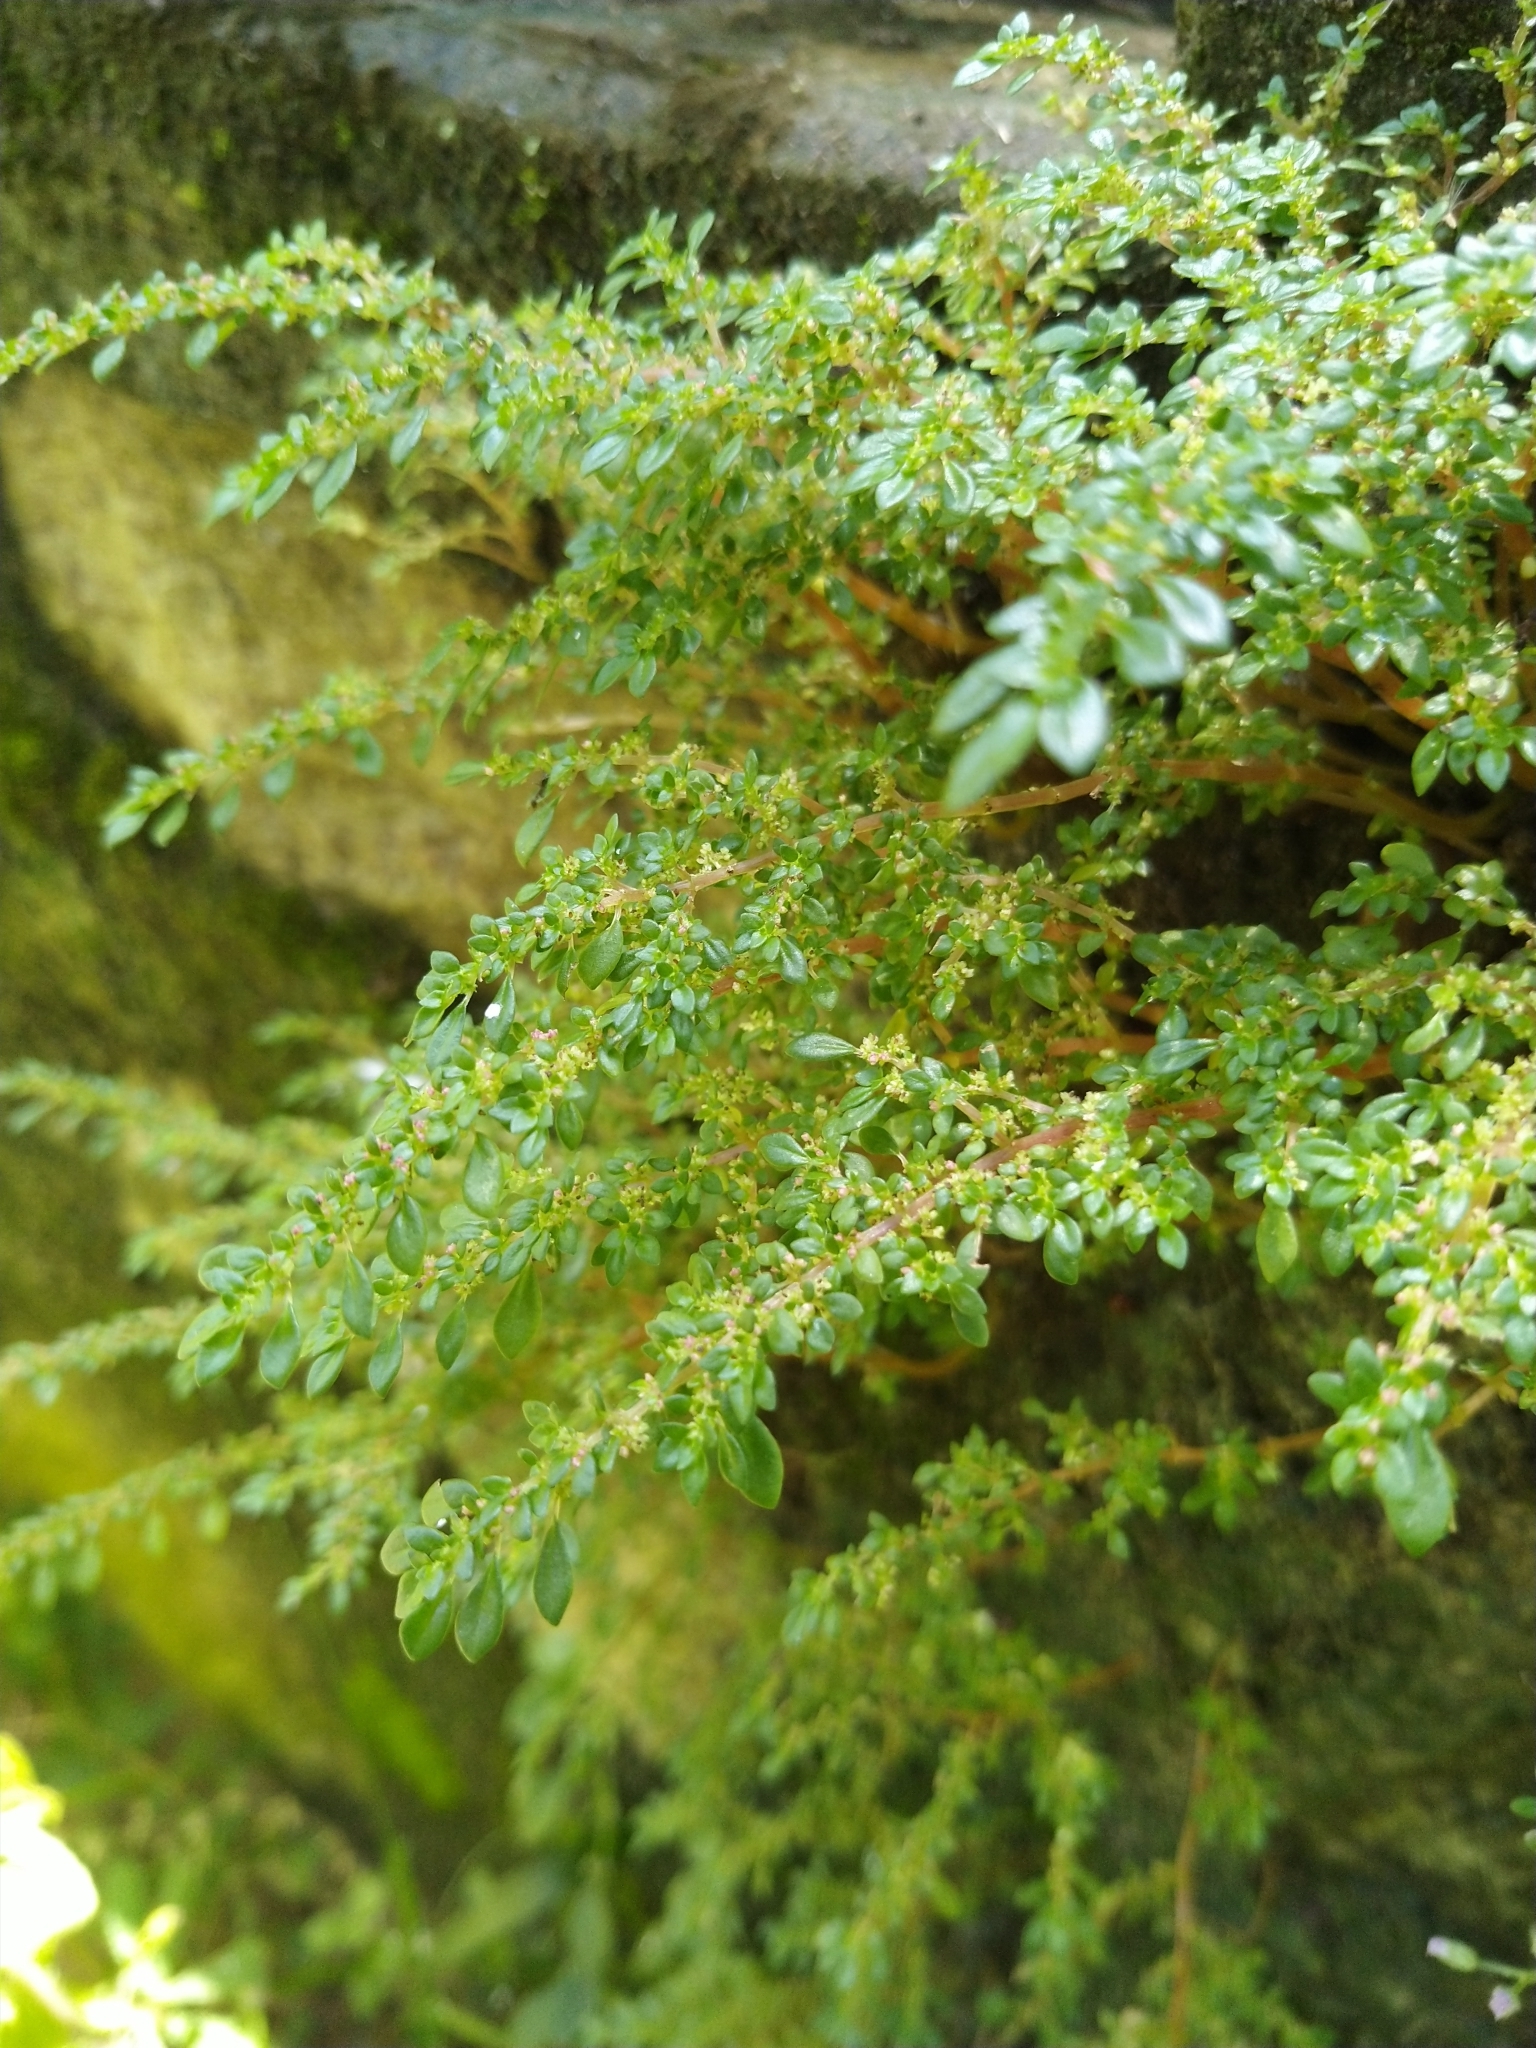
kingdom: Plantae
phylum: Tracheophyta
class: Magnoliopsida
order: Rosales
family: Urticaceae
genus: Pilea
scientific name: Pilea microphylla
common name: Artillery-plant
